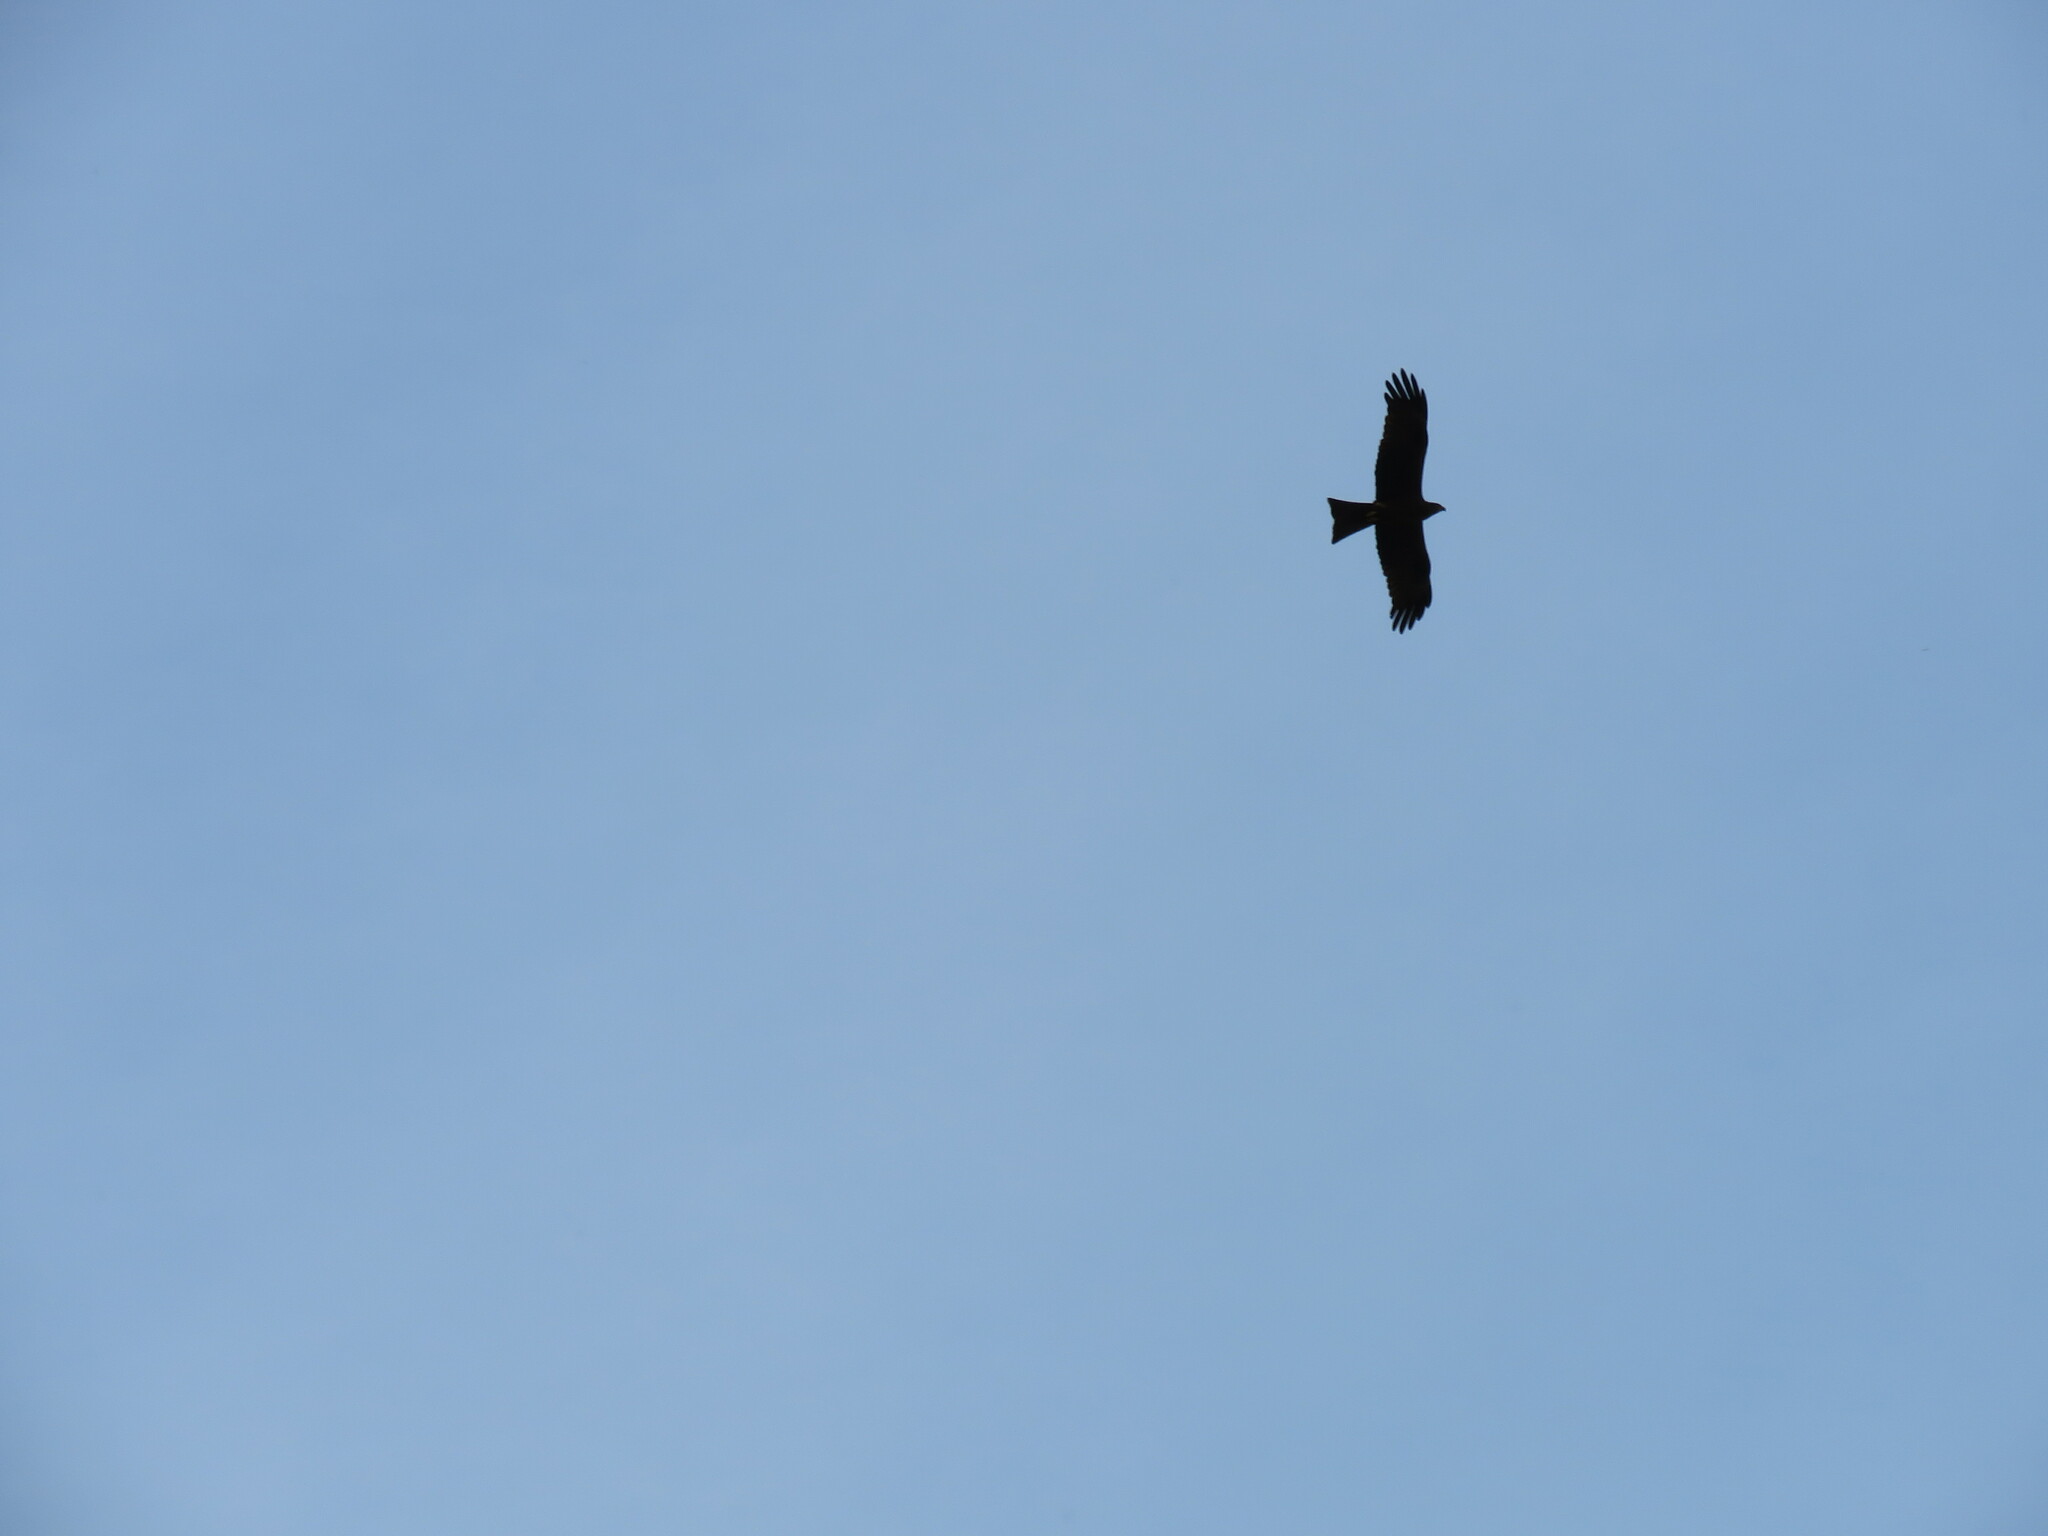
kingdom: Animalia
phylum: Chordata
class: Aves
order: Accipitriformes
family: Accipitridae
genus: Milvus
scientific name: Milvus migrans
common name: Black kite
